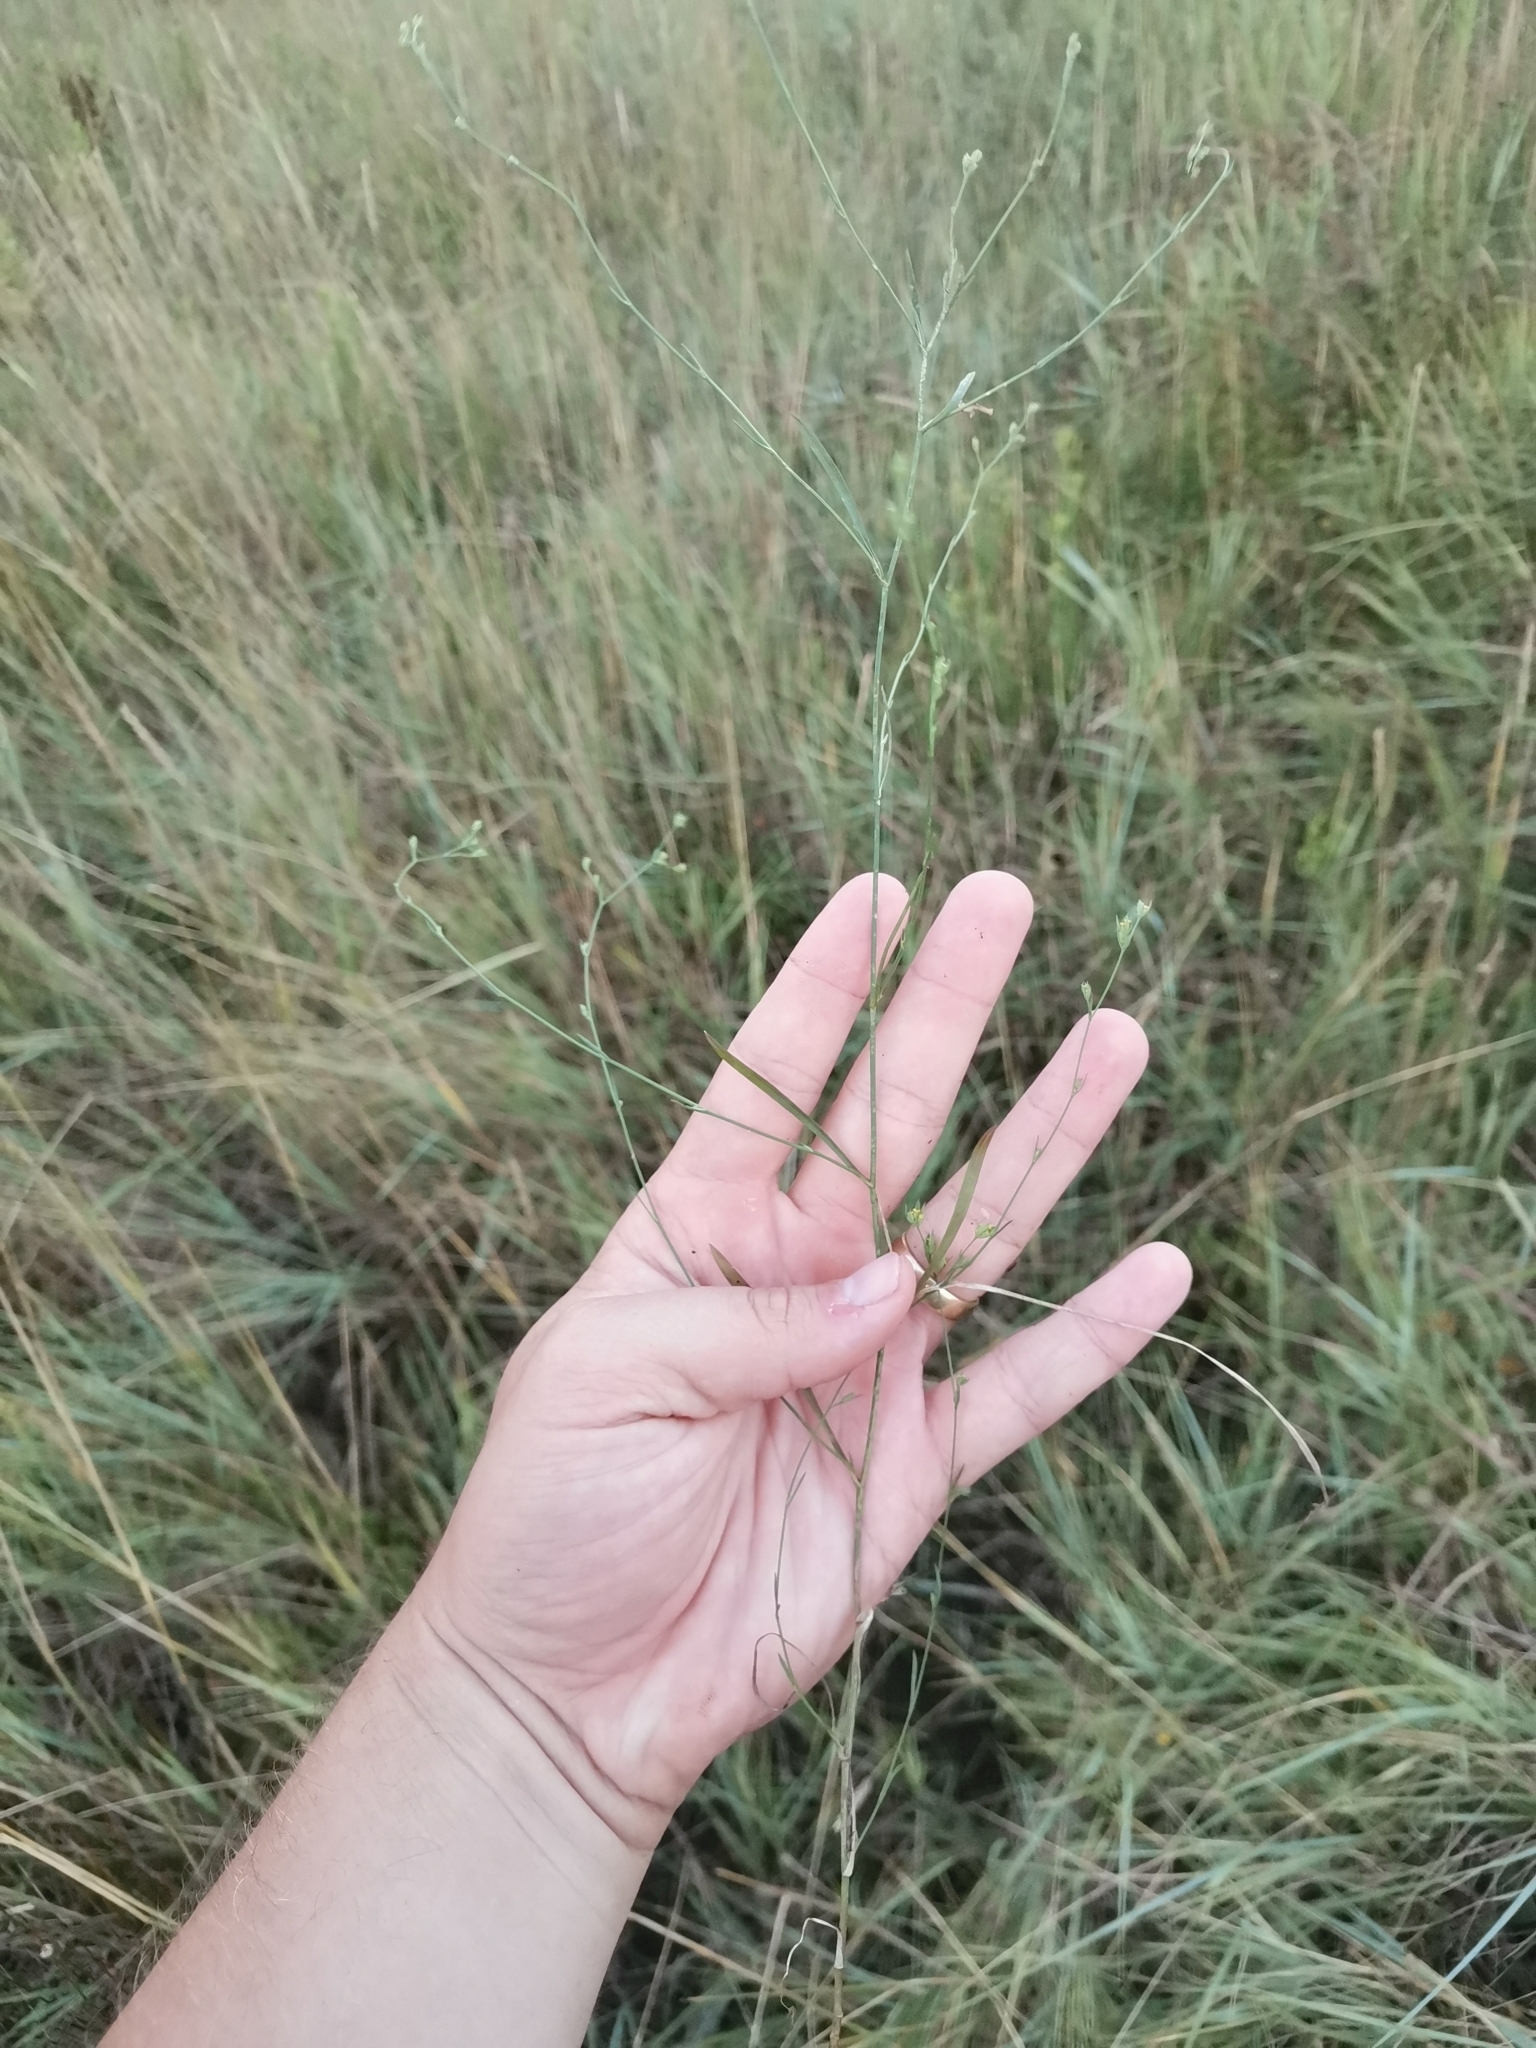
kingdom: Plantae
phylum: Tracheophyta
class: Magnoliopsida
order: Apiales
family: Apiaceae
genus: Bupleurum
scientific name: Bupleurum tenuissimum
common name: Slender hare's-ear
